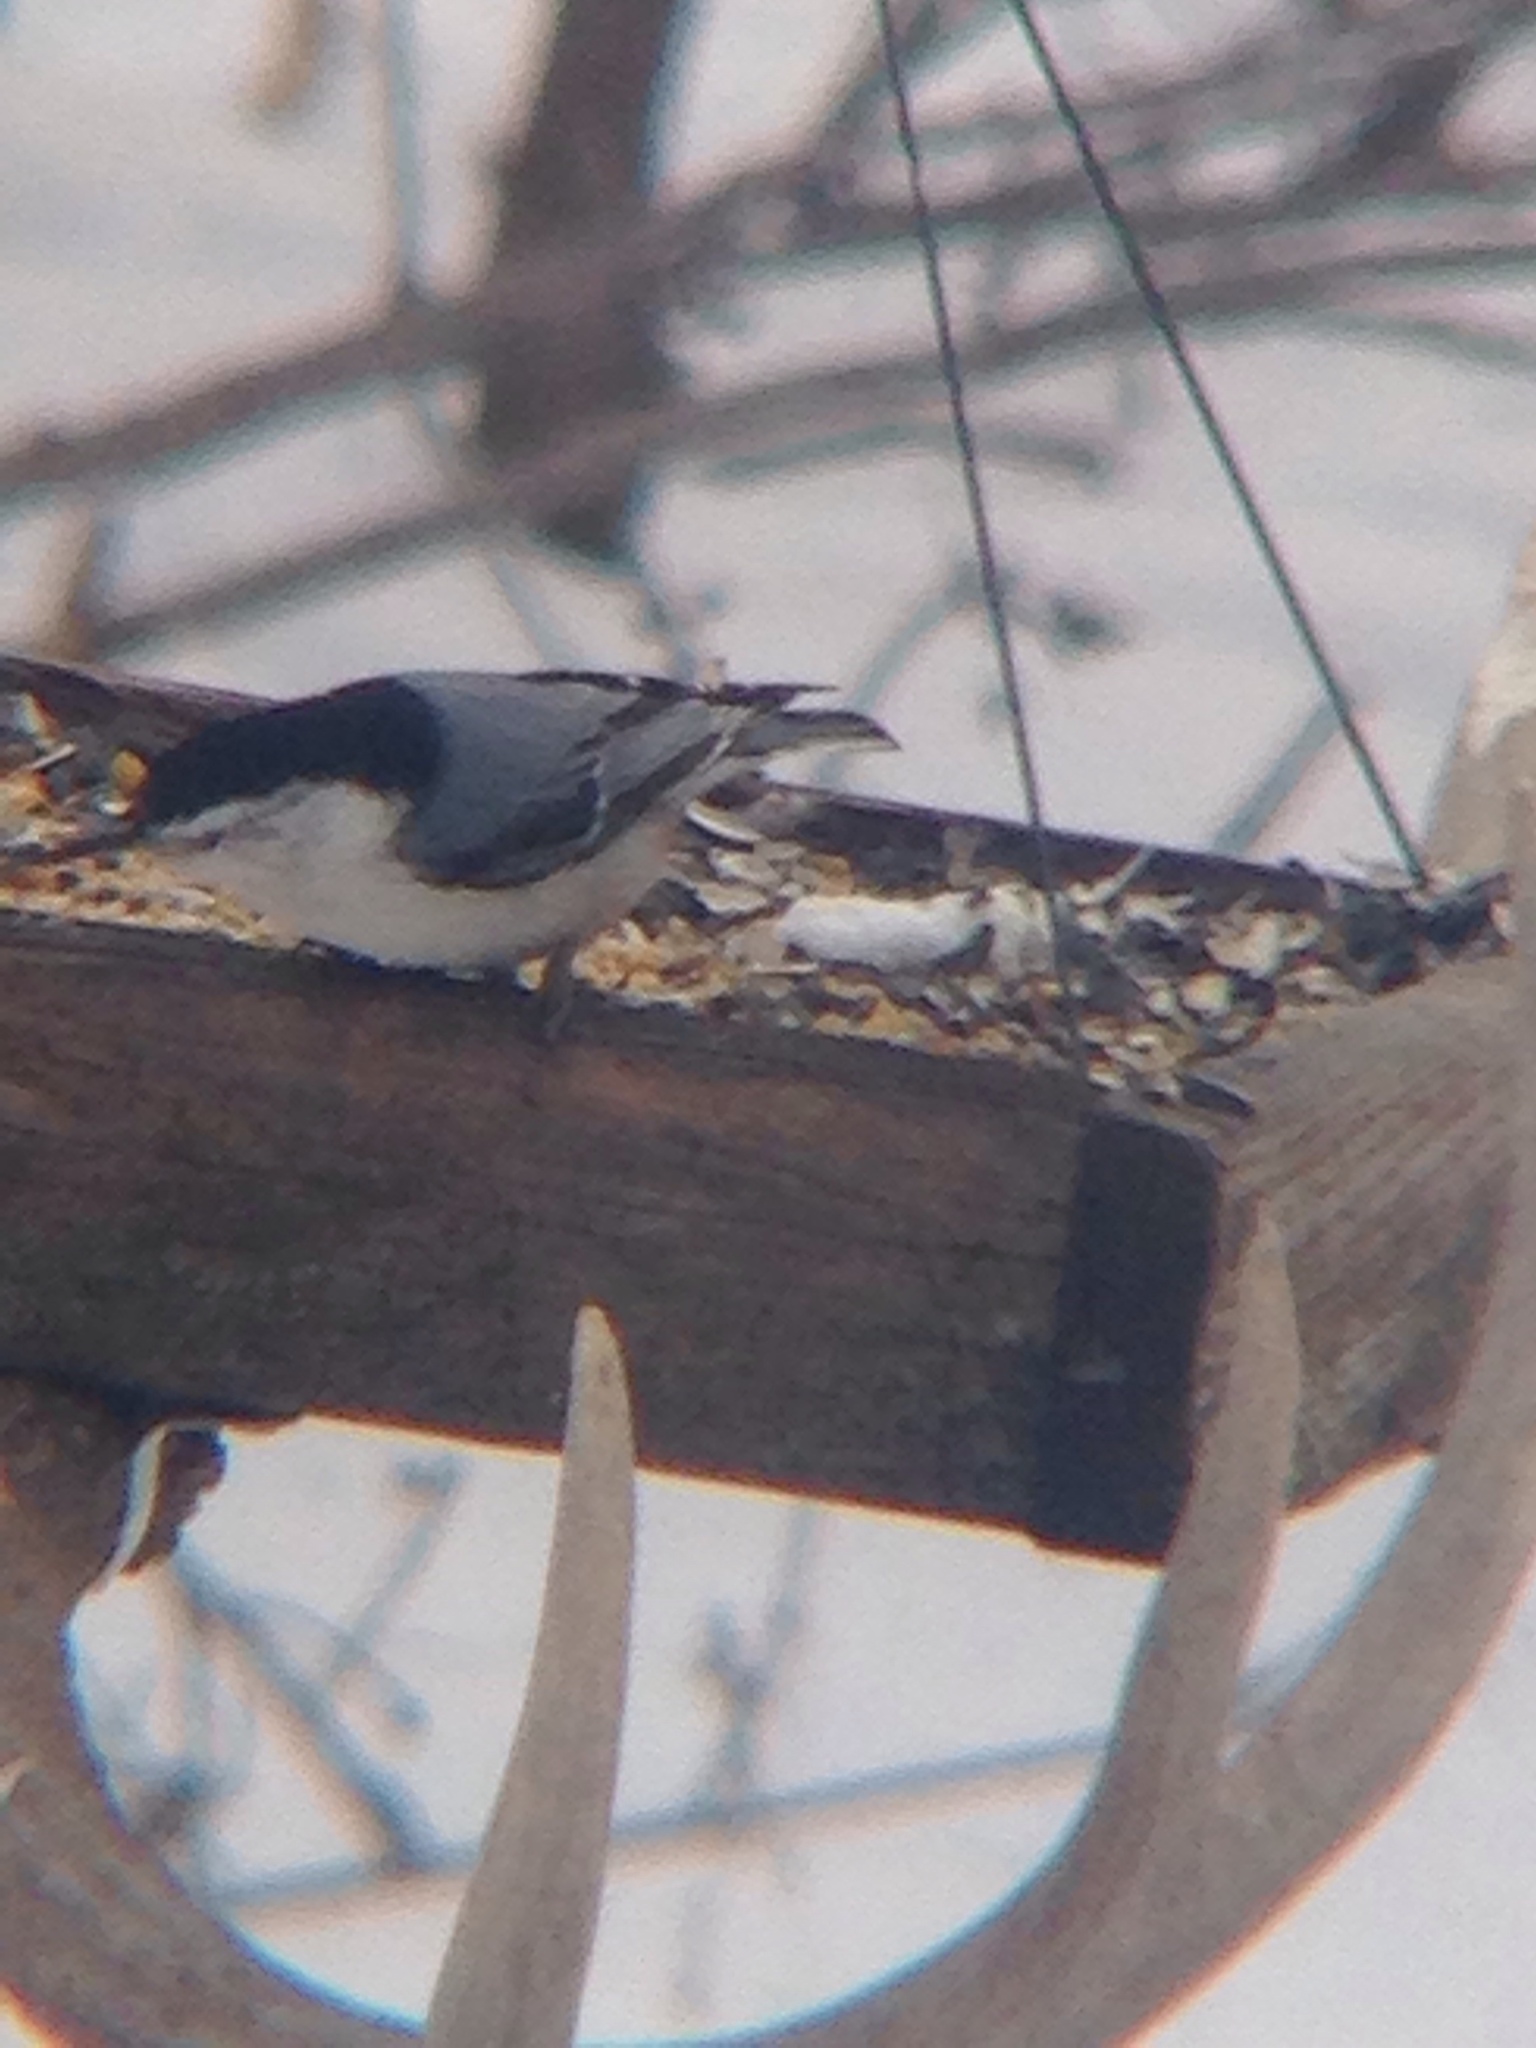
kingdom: Animalia
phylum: Chordata
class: Aves
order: Passeriformes
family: Sittidae
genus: Sitta
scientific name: Sitta carolinensis
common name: White-breasted nuthatch
